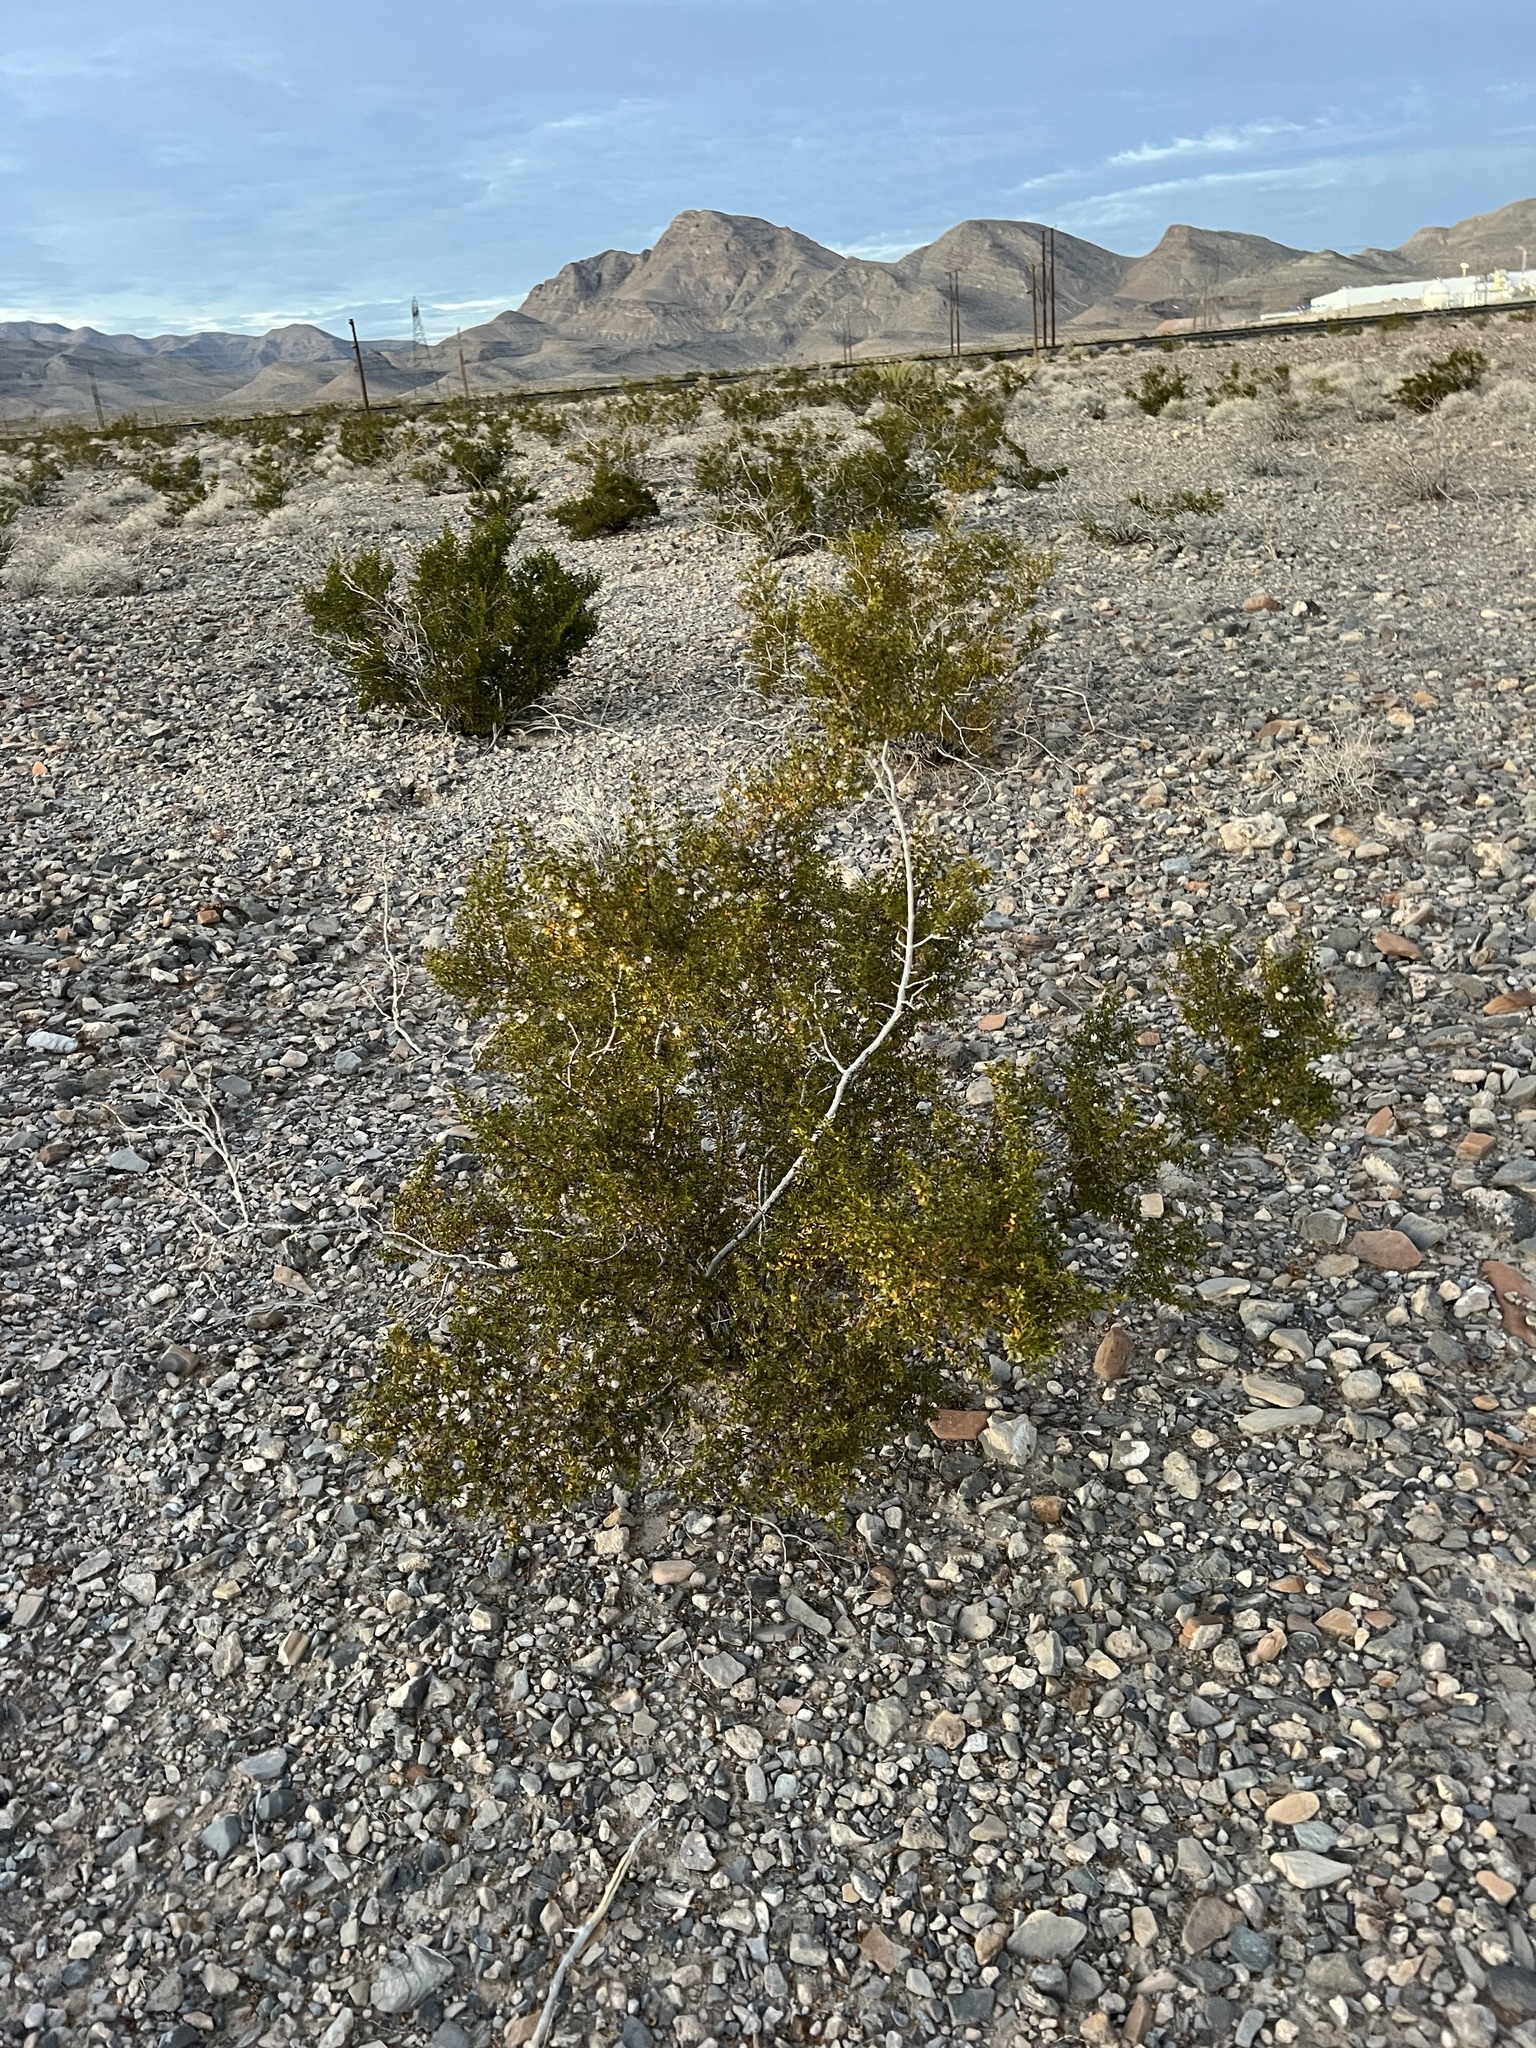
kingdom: Plantae
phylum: Tracheophyta
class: Magnoliopsida
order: Zygophyllales
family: Zygophyllaceae
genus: Larrea
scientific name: Larrea tridentata
